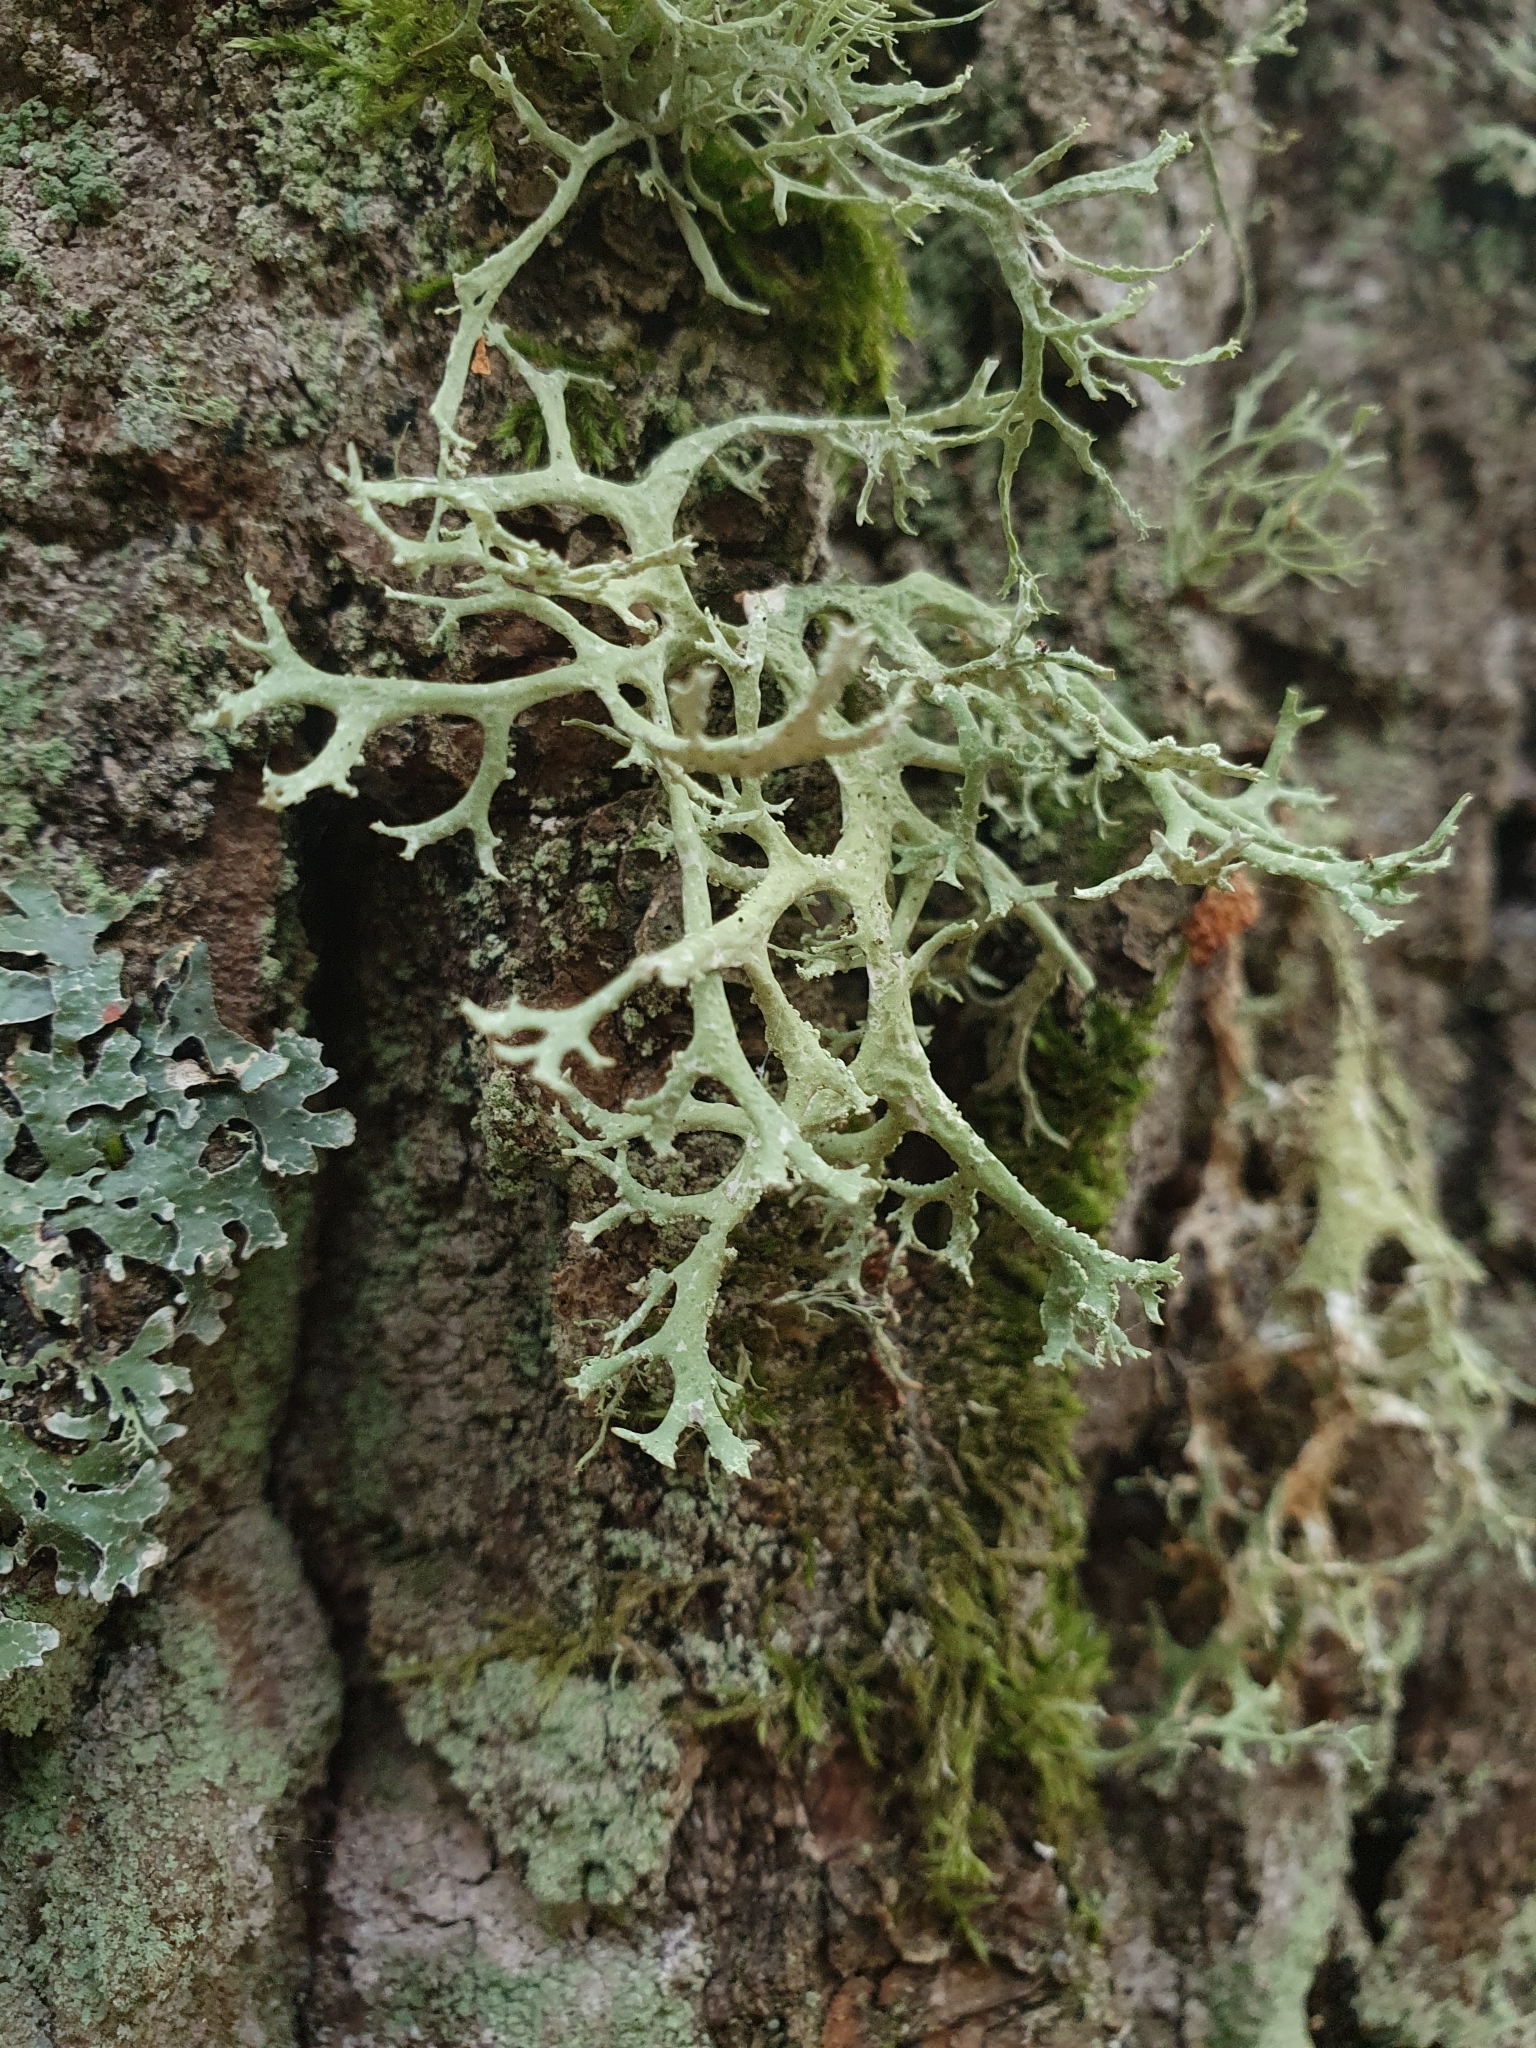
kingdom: Fungi
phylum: Ascomycota
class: Lecanoromycetes
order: Lecanorales
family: Parmeliaceae
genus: Evernia
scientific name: Evernia prunastri
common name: Oak moss
